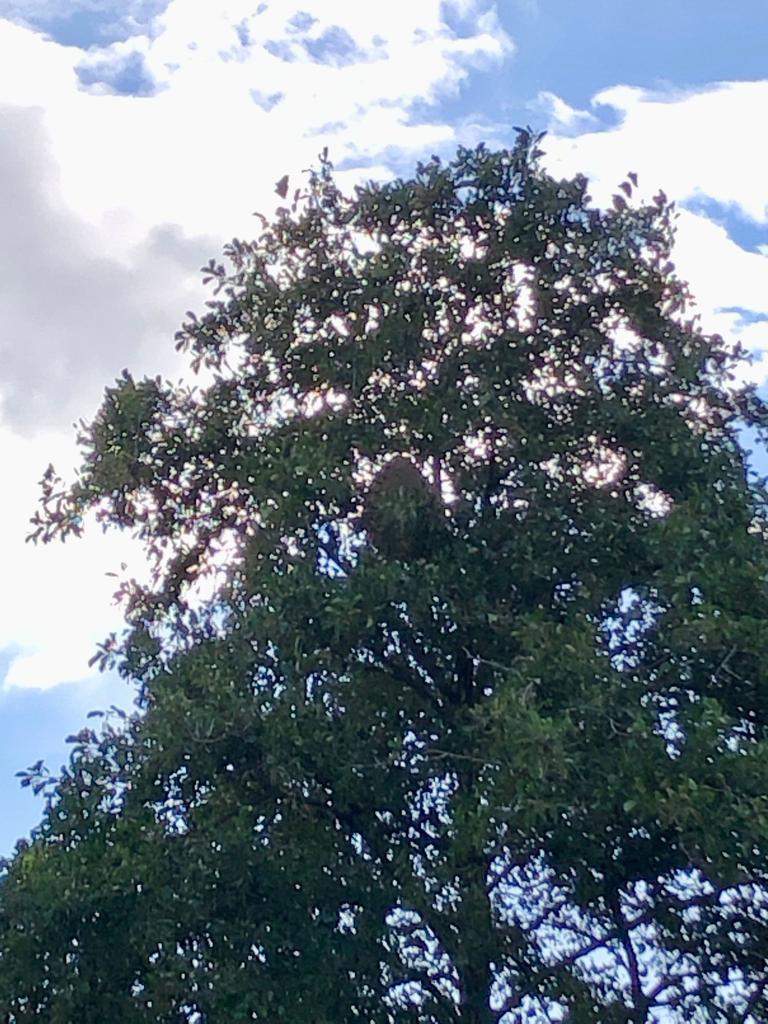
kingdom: Animalia
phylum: Arthropoda
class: Insecta
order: Hymenoptera
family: Vespidae
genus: Vespa
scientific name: Vespa velutina
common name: Asian hornet
